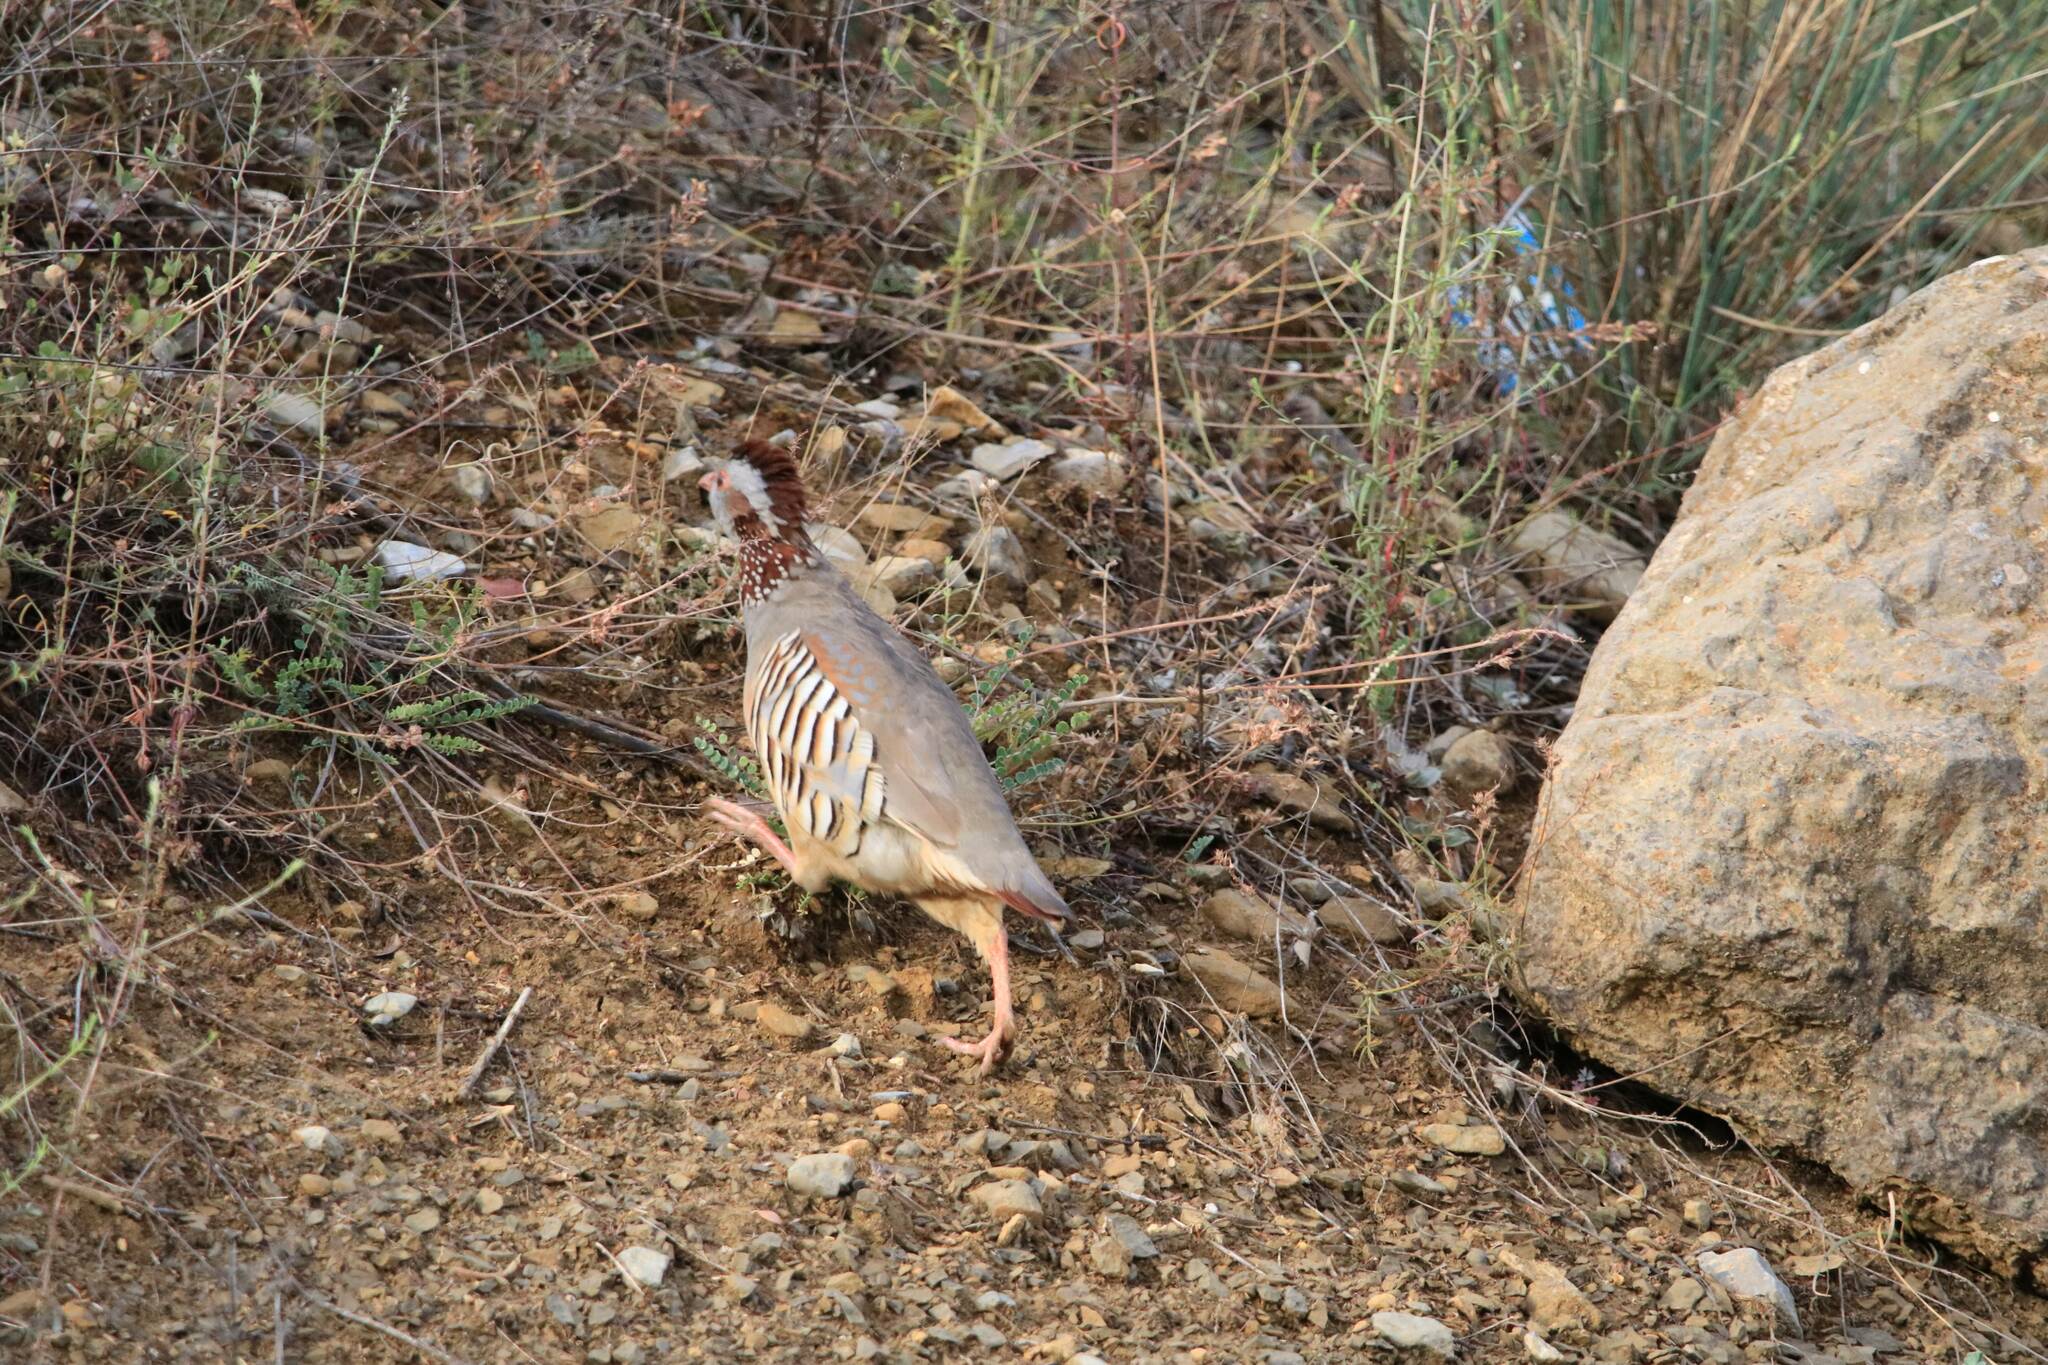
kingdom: Animalia
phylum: Chordata
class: Aves
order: Galliformes
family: Phasianidae
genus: Alectoris
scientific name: Alectoris barbara
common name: Barbary partridge
